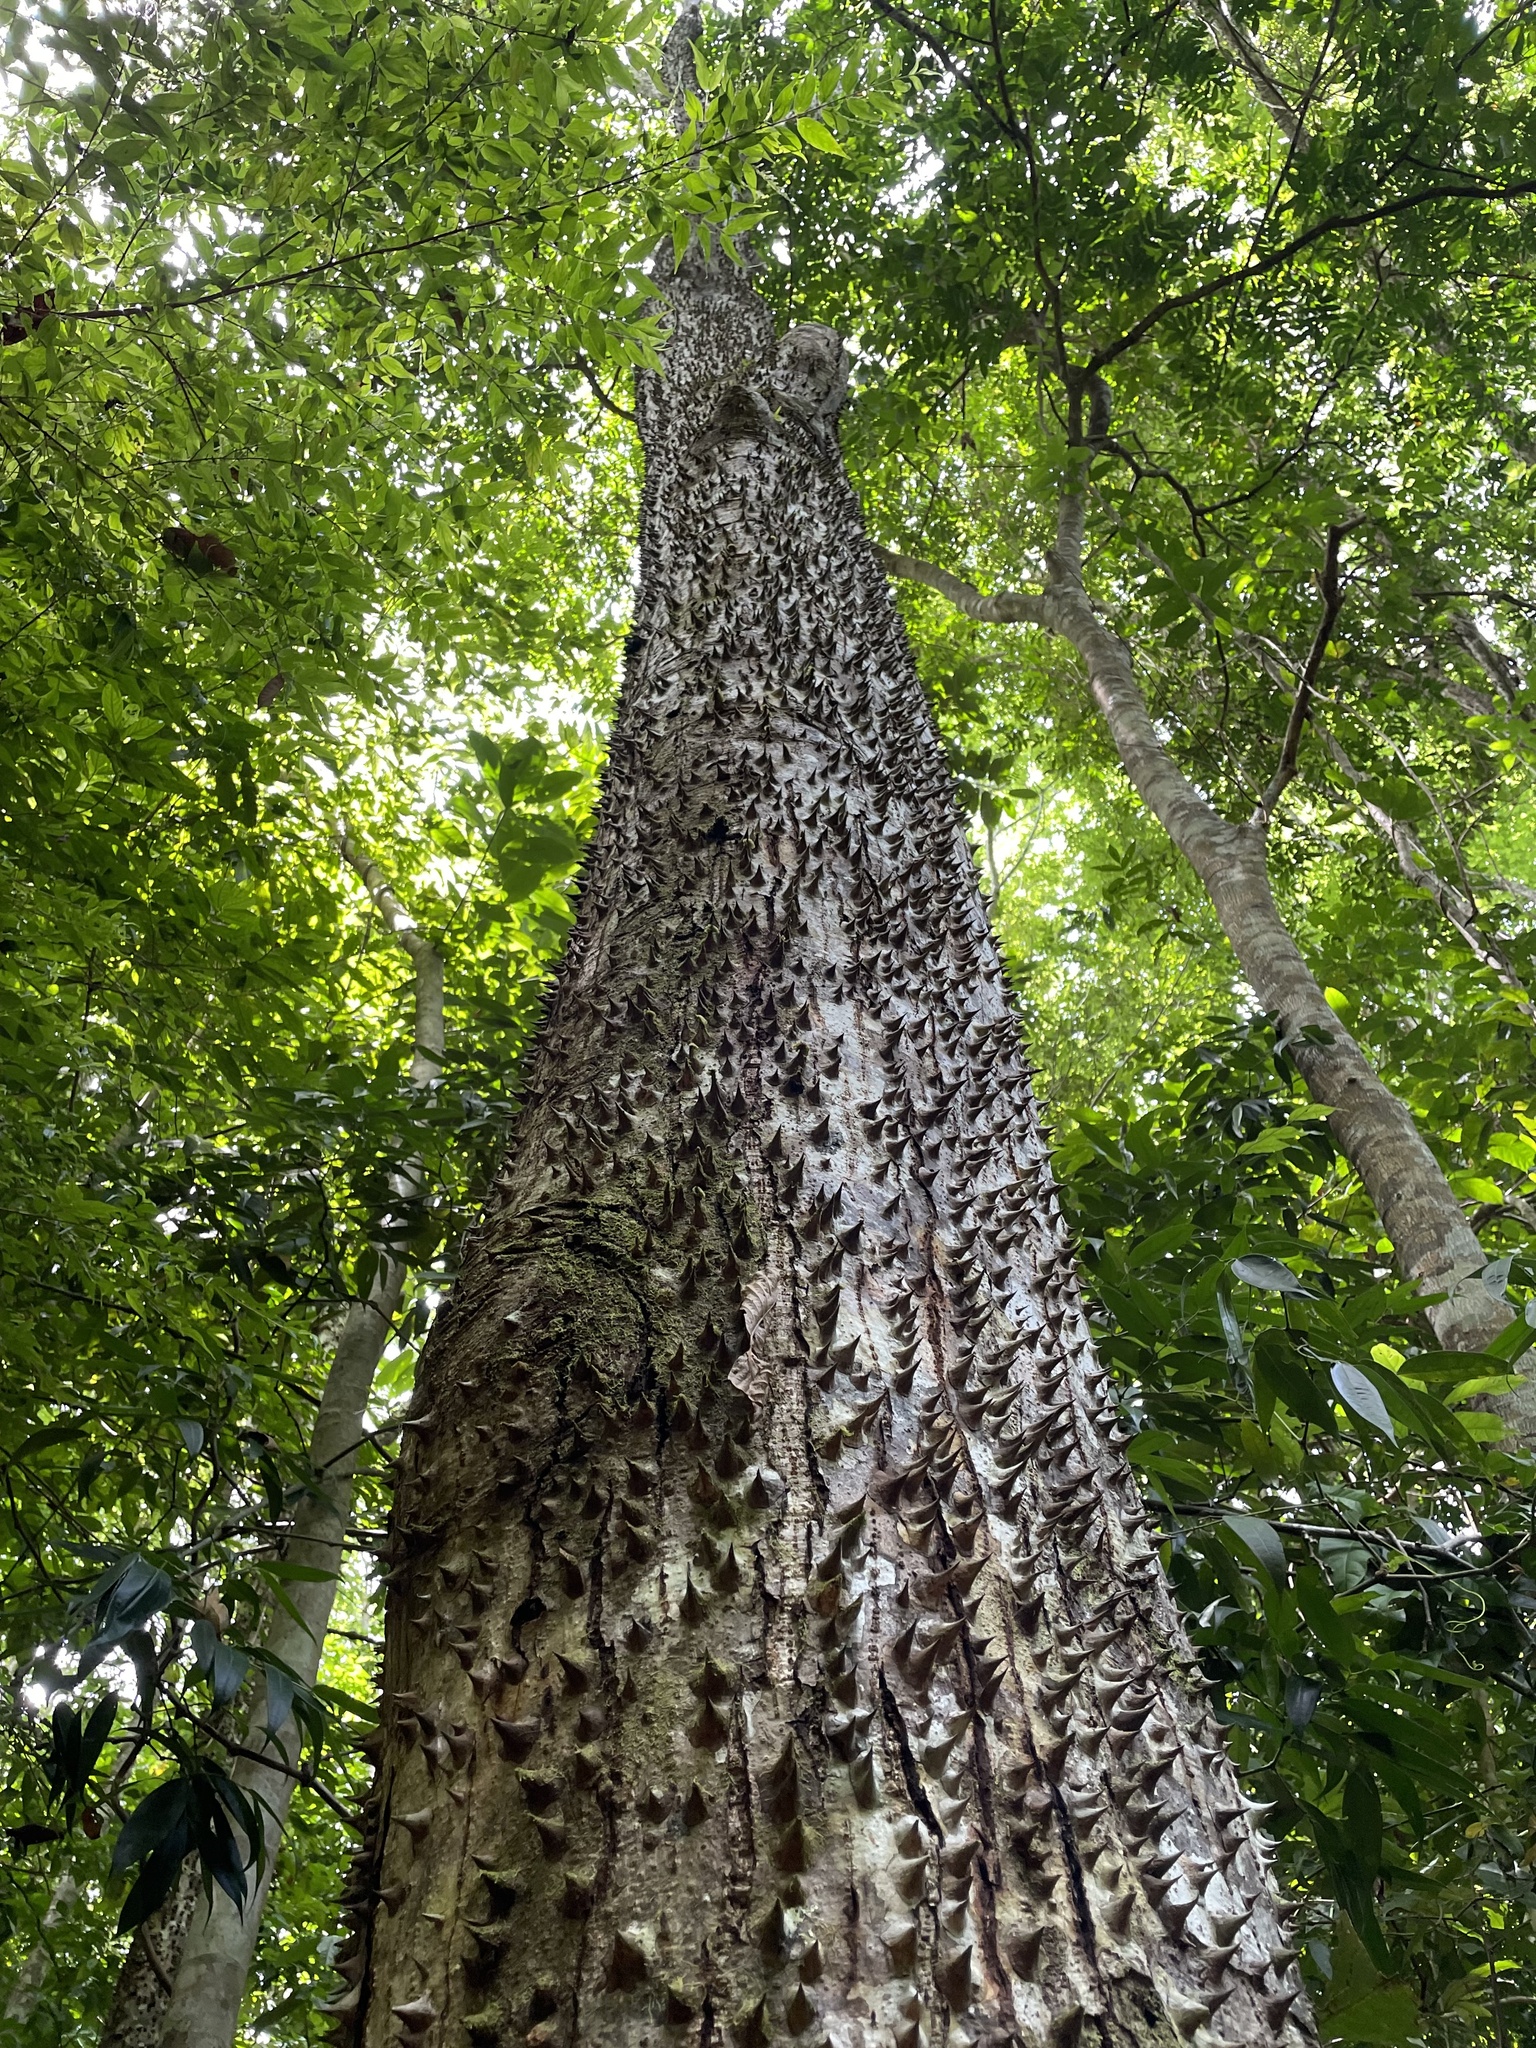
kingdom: Plantae
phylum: Tracheophyta
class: Magnoliopsida
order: Malpighiales
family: Euphorbiaceae
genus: Hura
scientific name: Hura crepitans
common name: Sandboxtree
